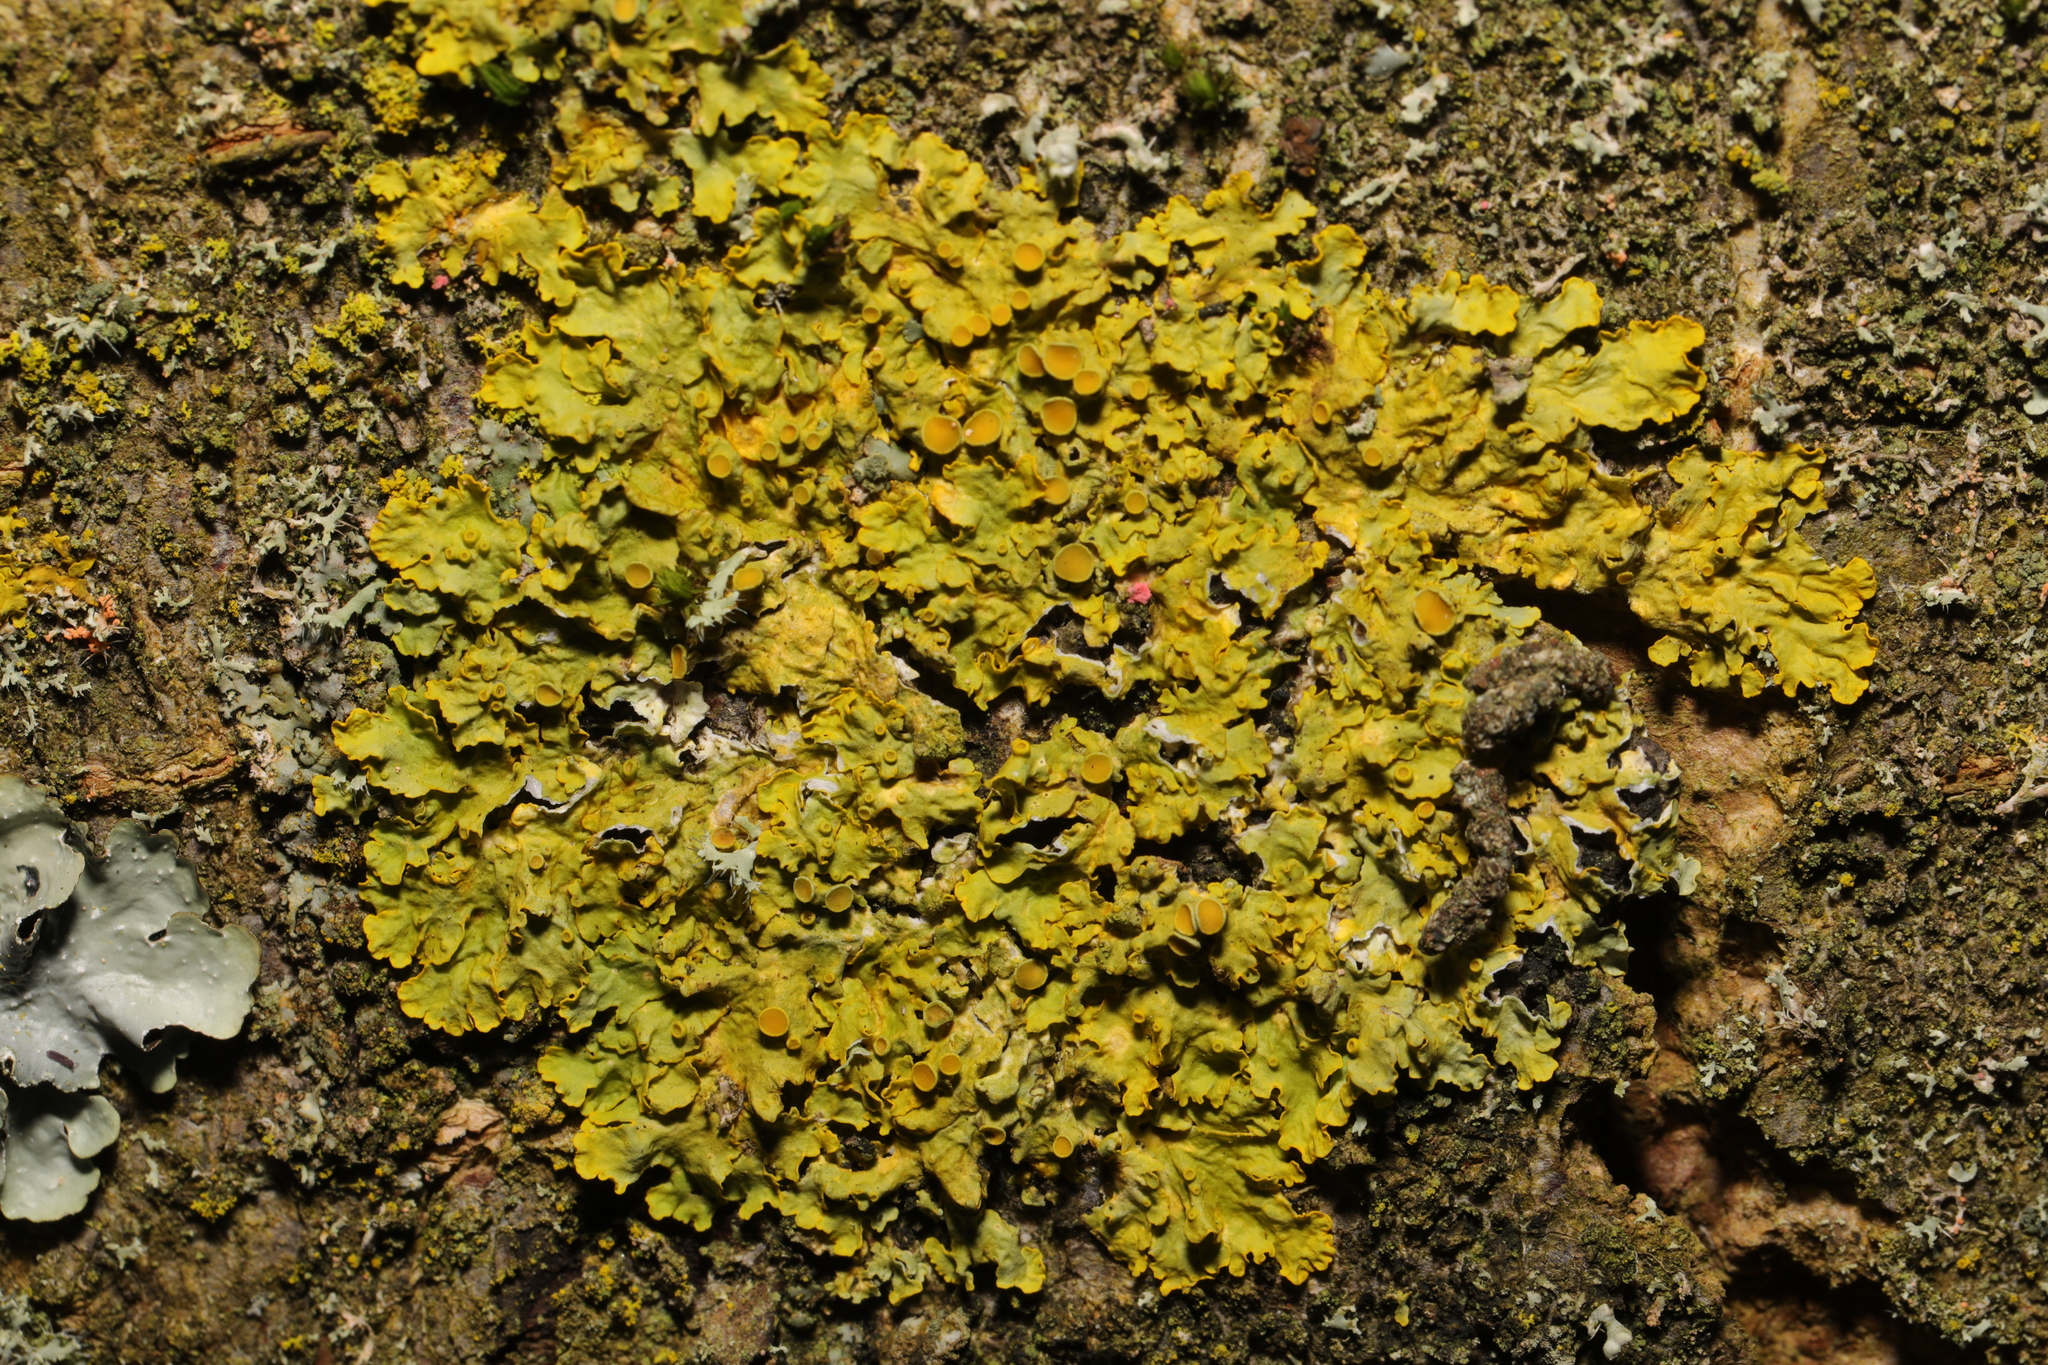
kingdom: Fungi
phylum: Ascomycota
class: Lecanoromycetes
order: Teloschistales
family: Teloschistaceae
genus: Xanthoria
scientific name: Xanthoria parietina
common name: Common orange lichen
